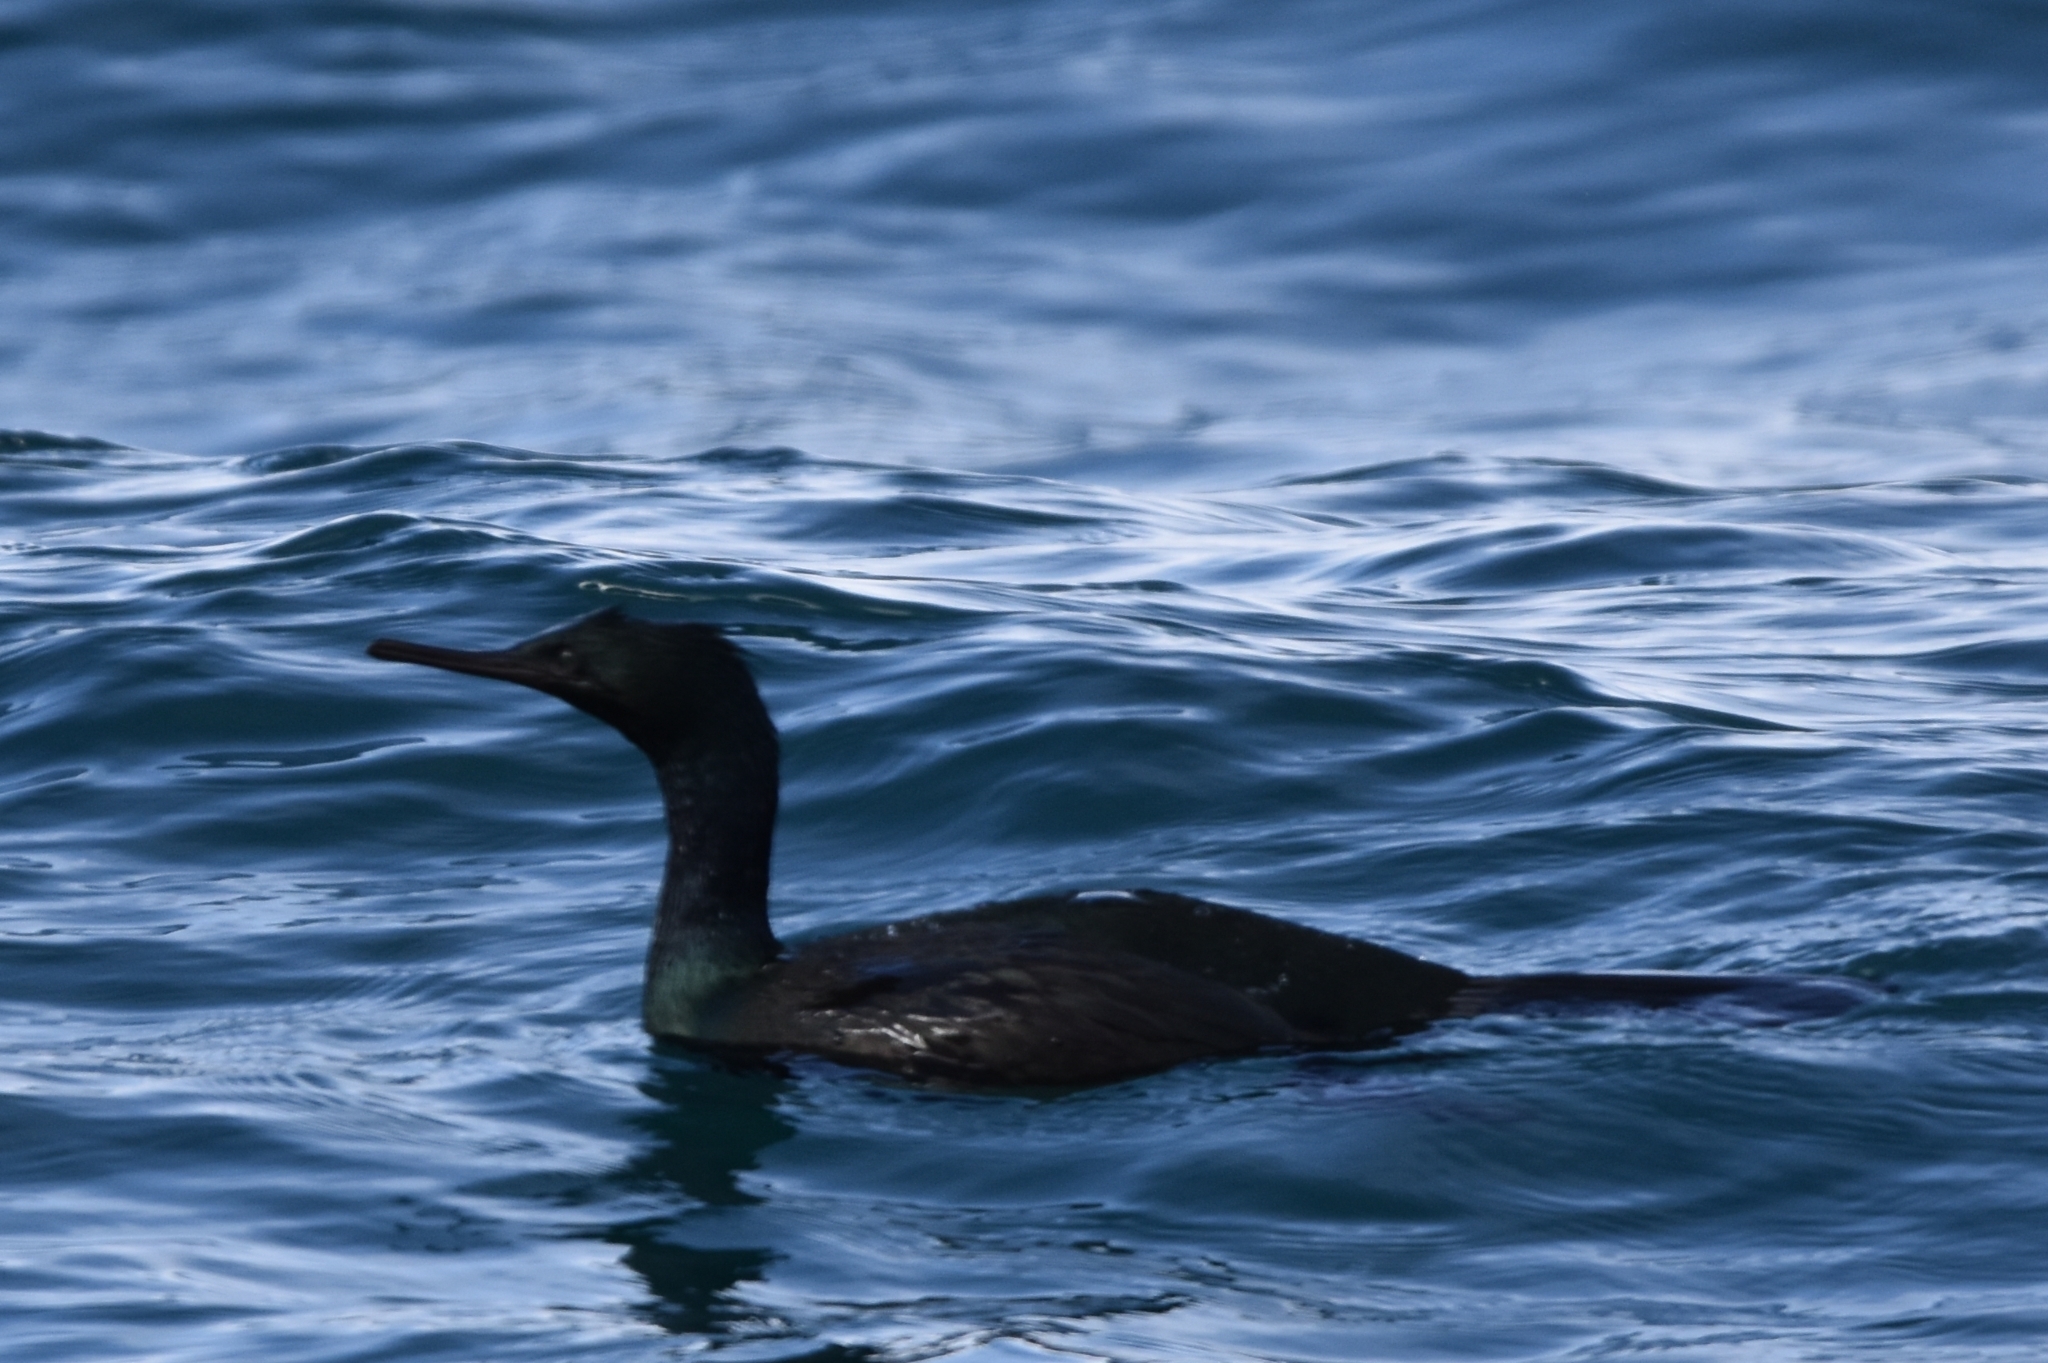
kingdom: Animalia
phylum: Chordata
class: Aves
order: Suliformes
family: Phalacrocoracidae
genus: Phalacrocorax
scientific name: Phalacrocorax pelagicus
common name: Pelagic cormorant
